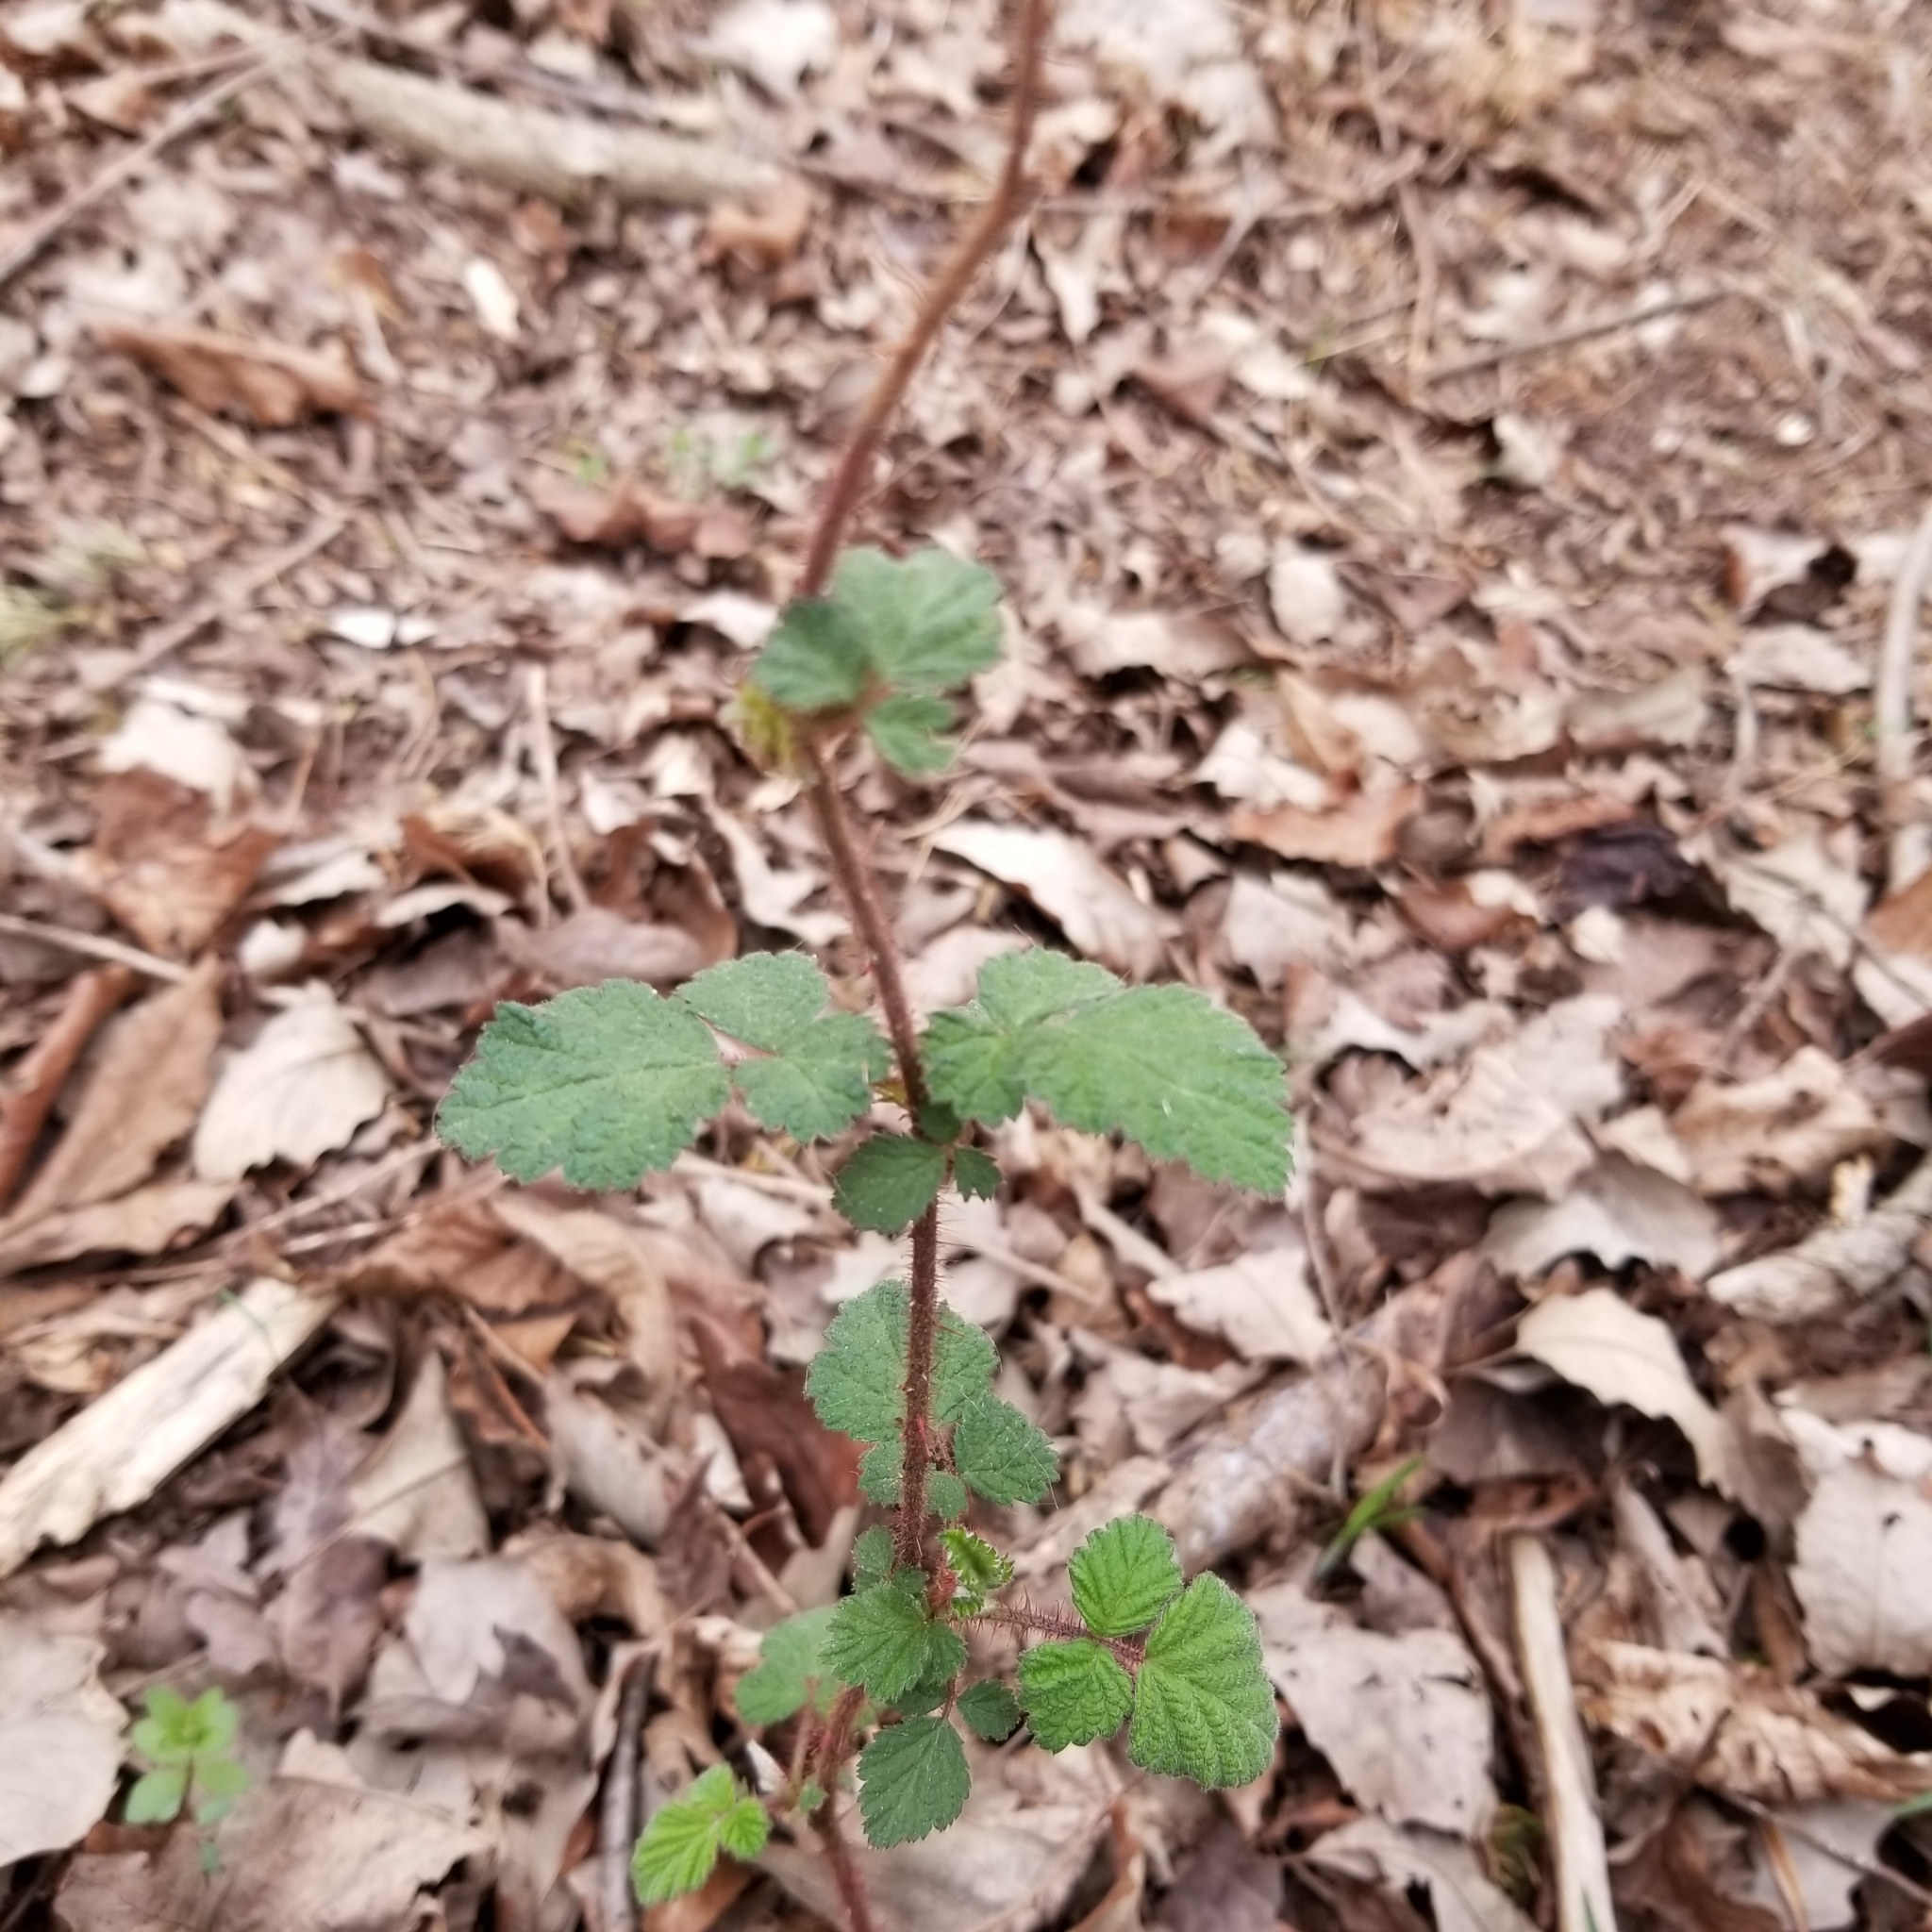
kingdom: Plantae
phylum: Tracheophyta
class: Magnoliopsida
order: Rosales
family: Rosaceae
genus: Rubus
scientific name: Rubus phoenicolasius
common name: Japanese wineberry
